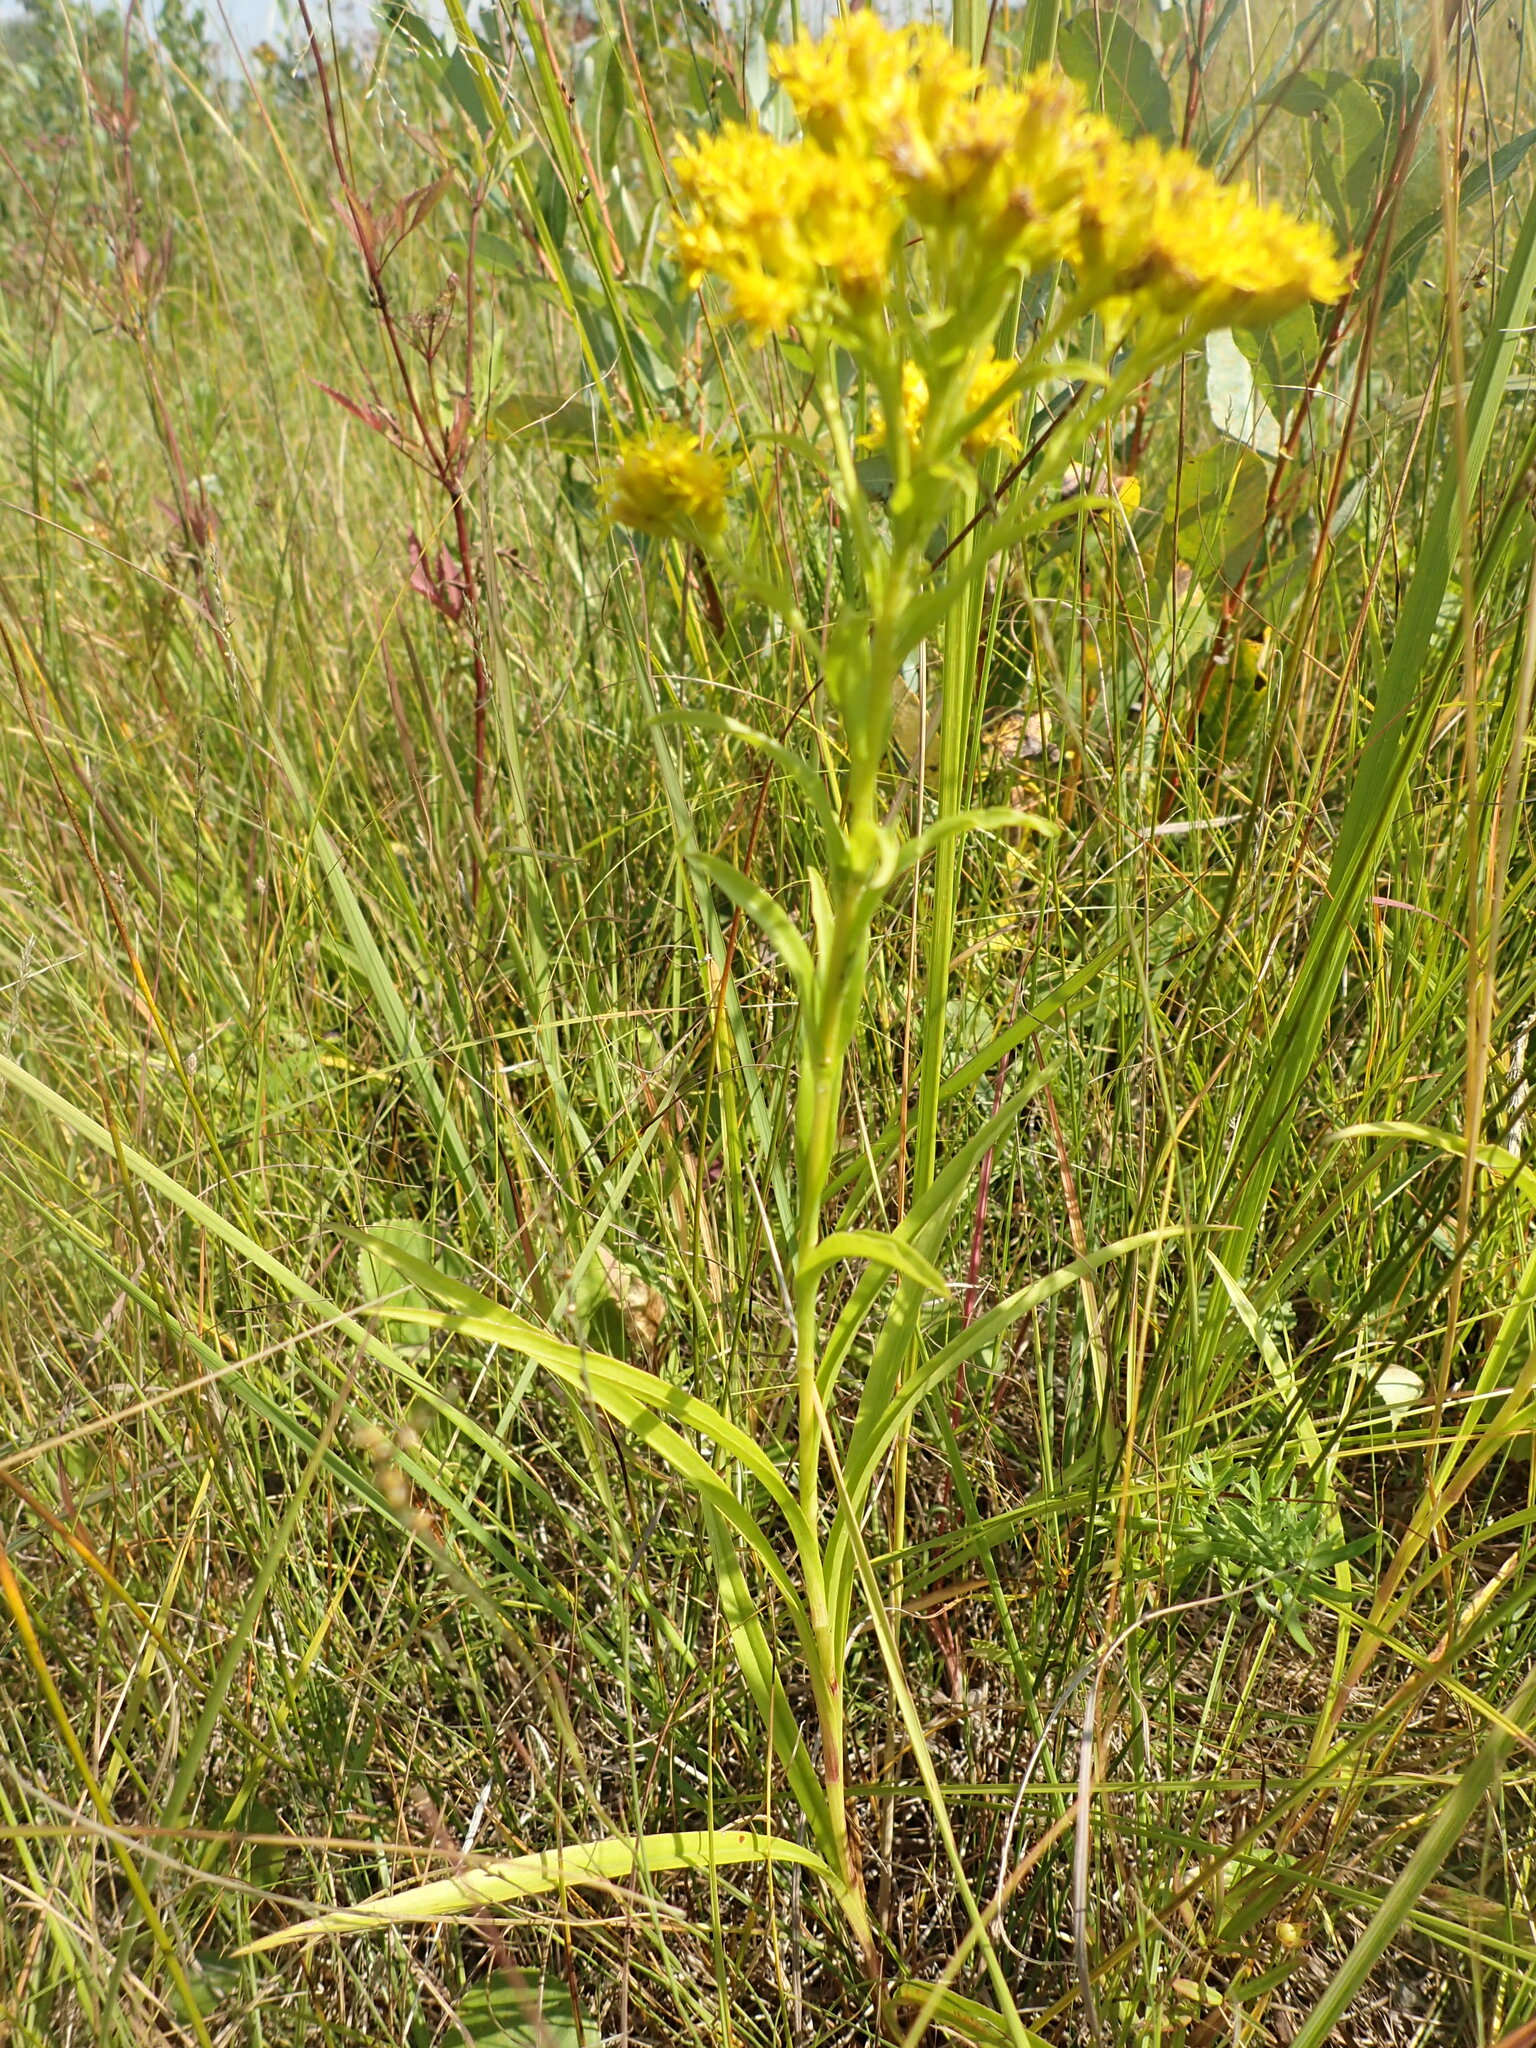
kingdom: Plantae
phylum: Tracheophyta
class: Magnoliopsida
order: Asterales
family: Asteraceae
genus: Solidago
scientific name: Solidago riddellii
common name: Riddell's goldenrod
